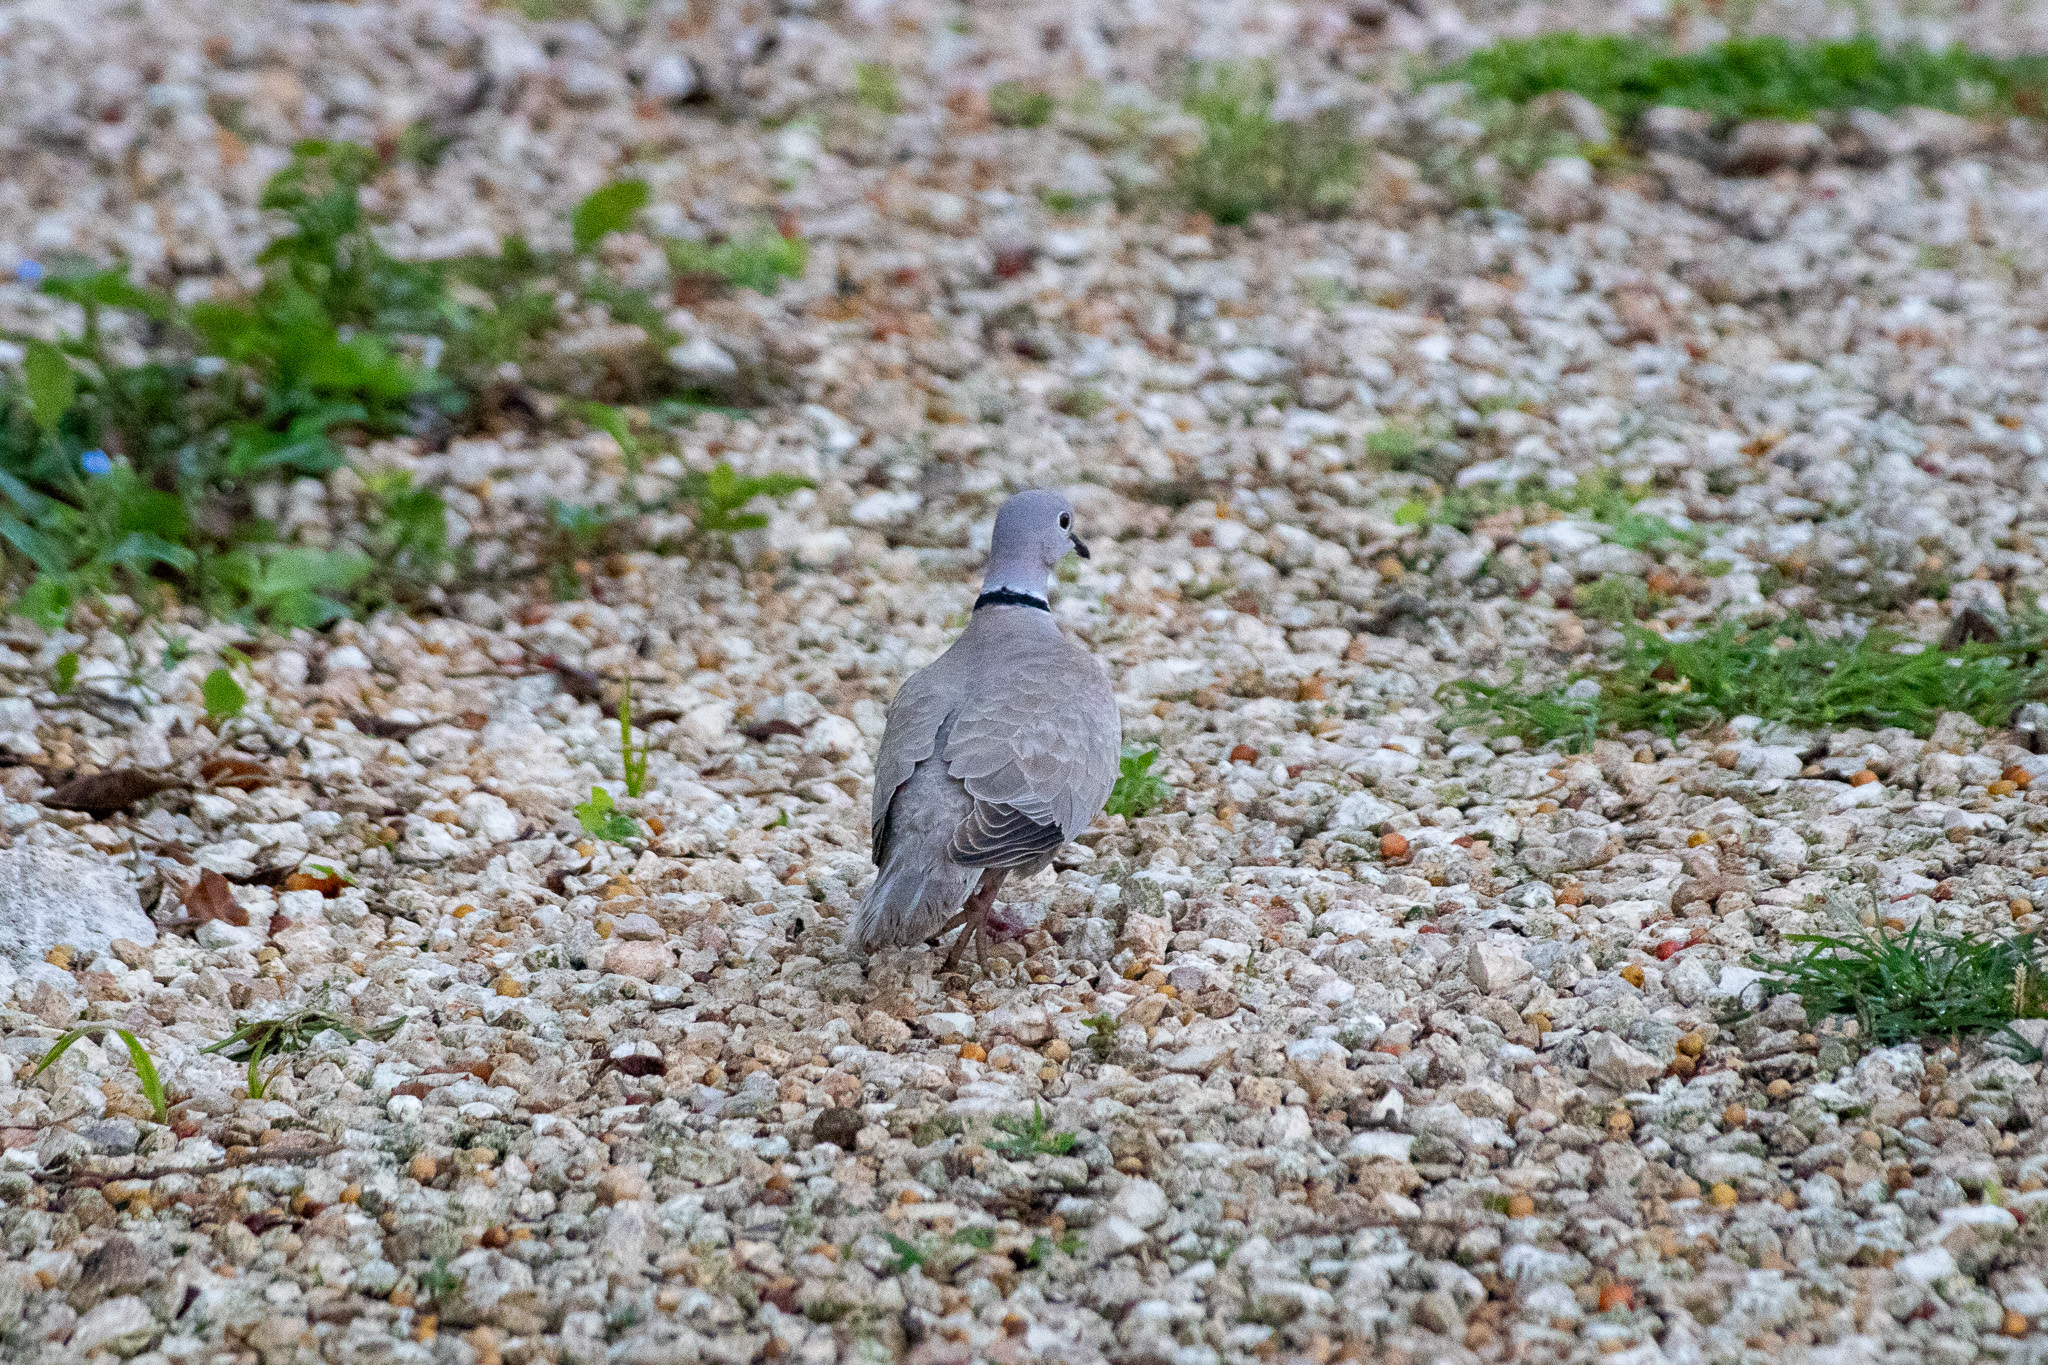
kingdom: Animalia
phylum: Chordata
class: Aves
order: Columbiformes
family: Columbidae
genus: Streptopelia
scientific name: Streptopelia decaocto
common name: Eurasian collared dove
